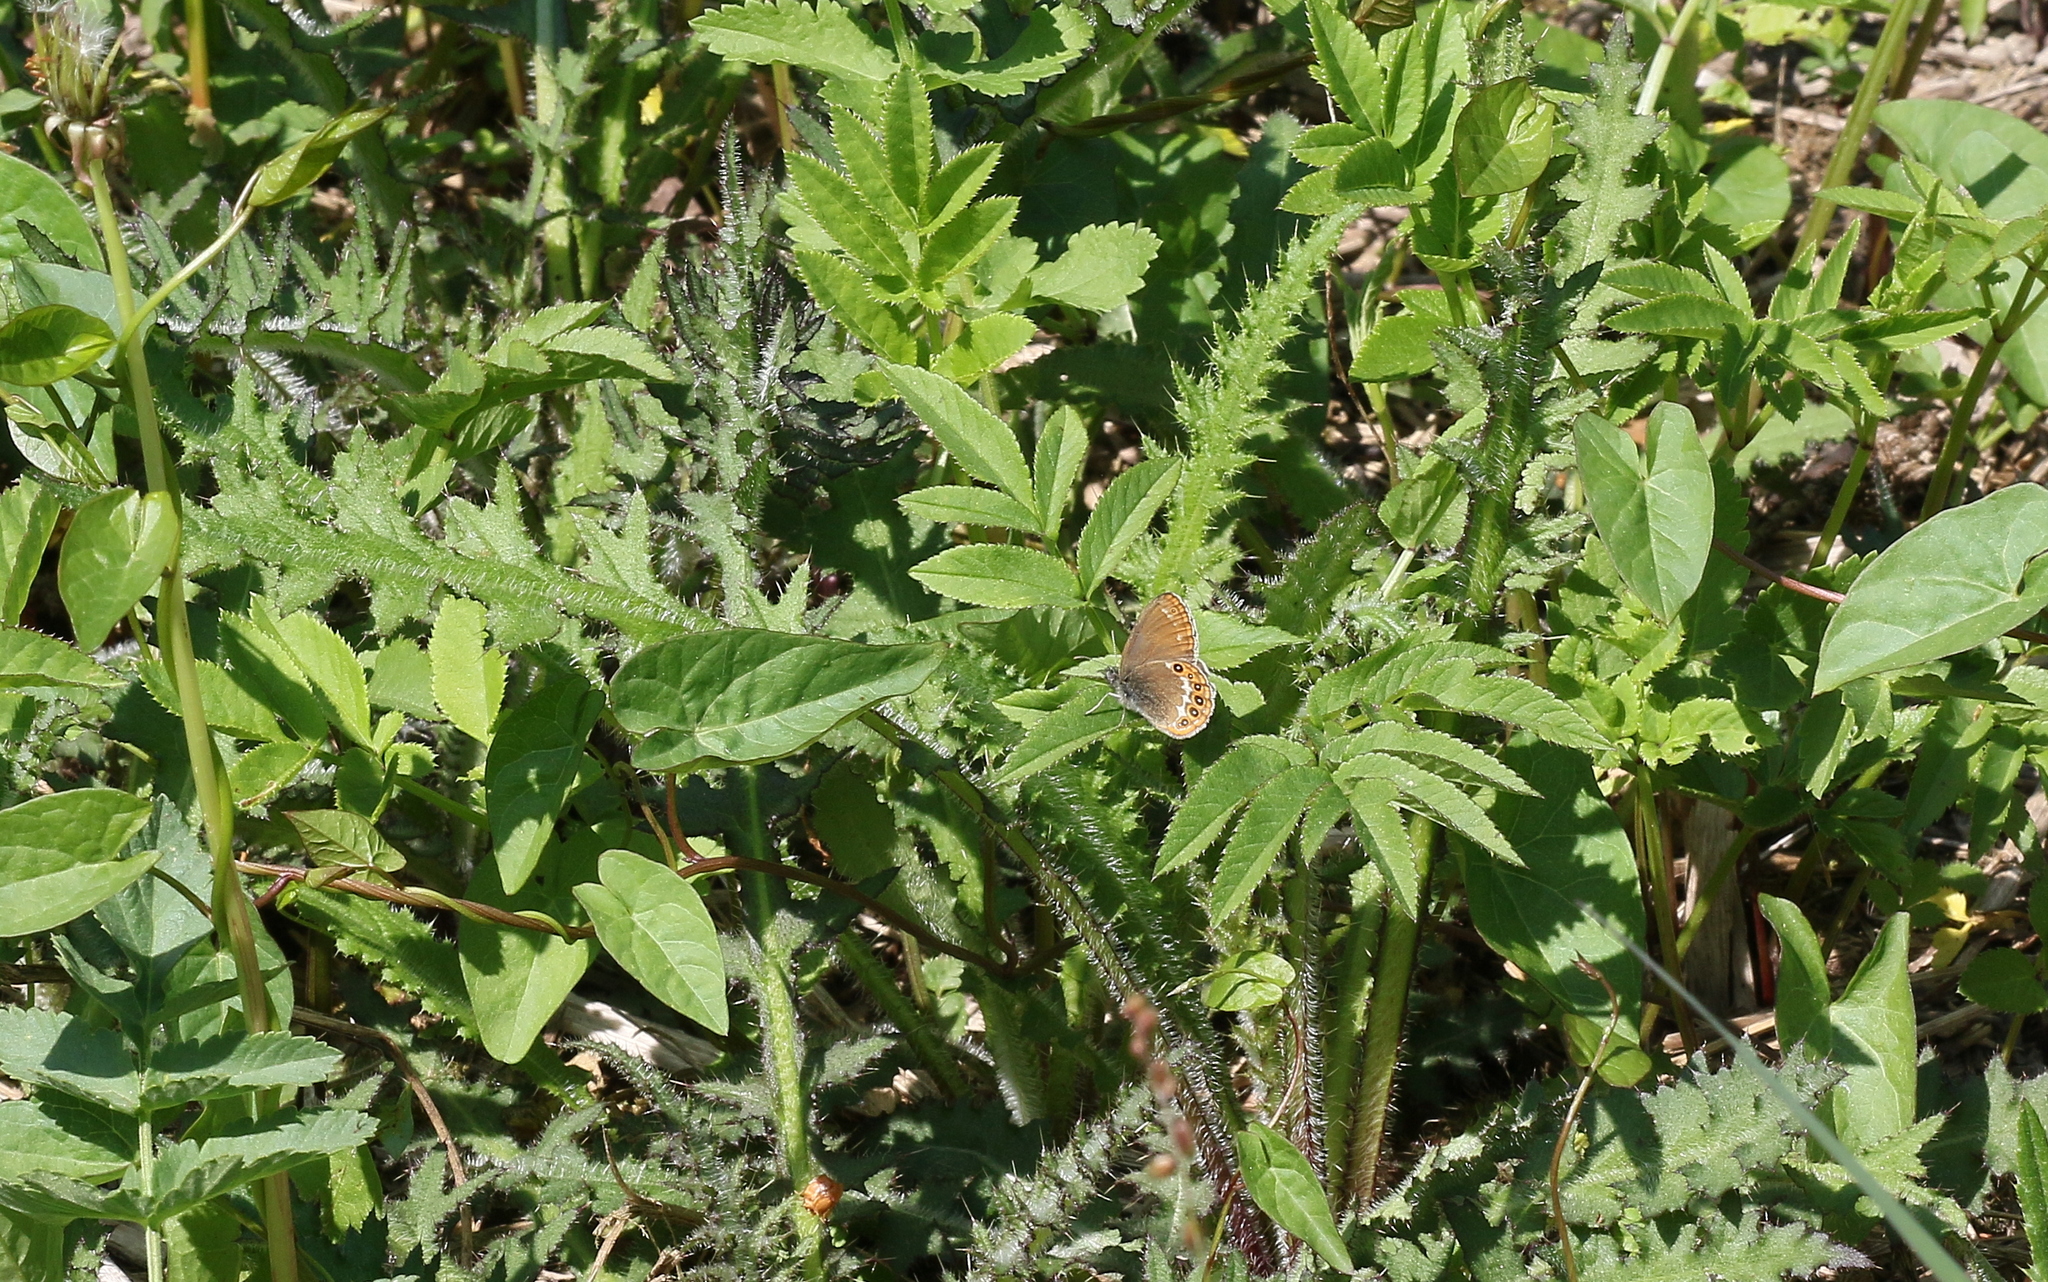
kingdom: Animalia
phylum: Arthropoda
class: Insecta
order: Lepidoptera
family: Nymphalidae
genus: Coenonympha
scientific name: Coenonympha hero
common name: Scarce heath
